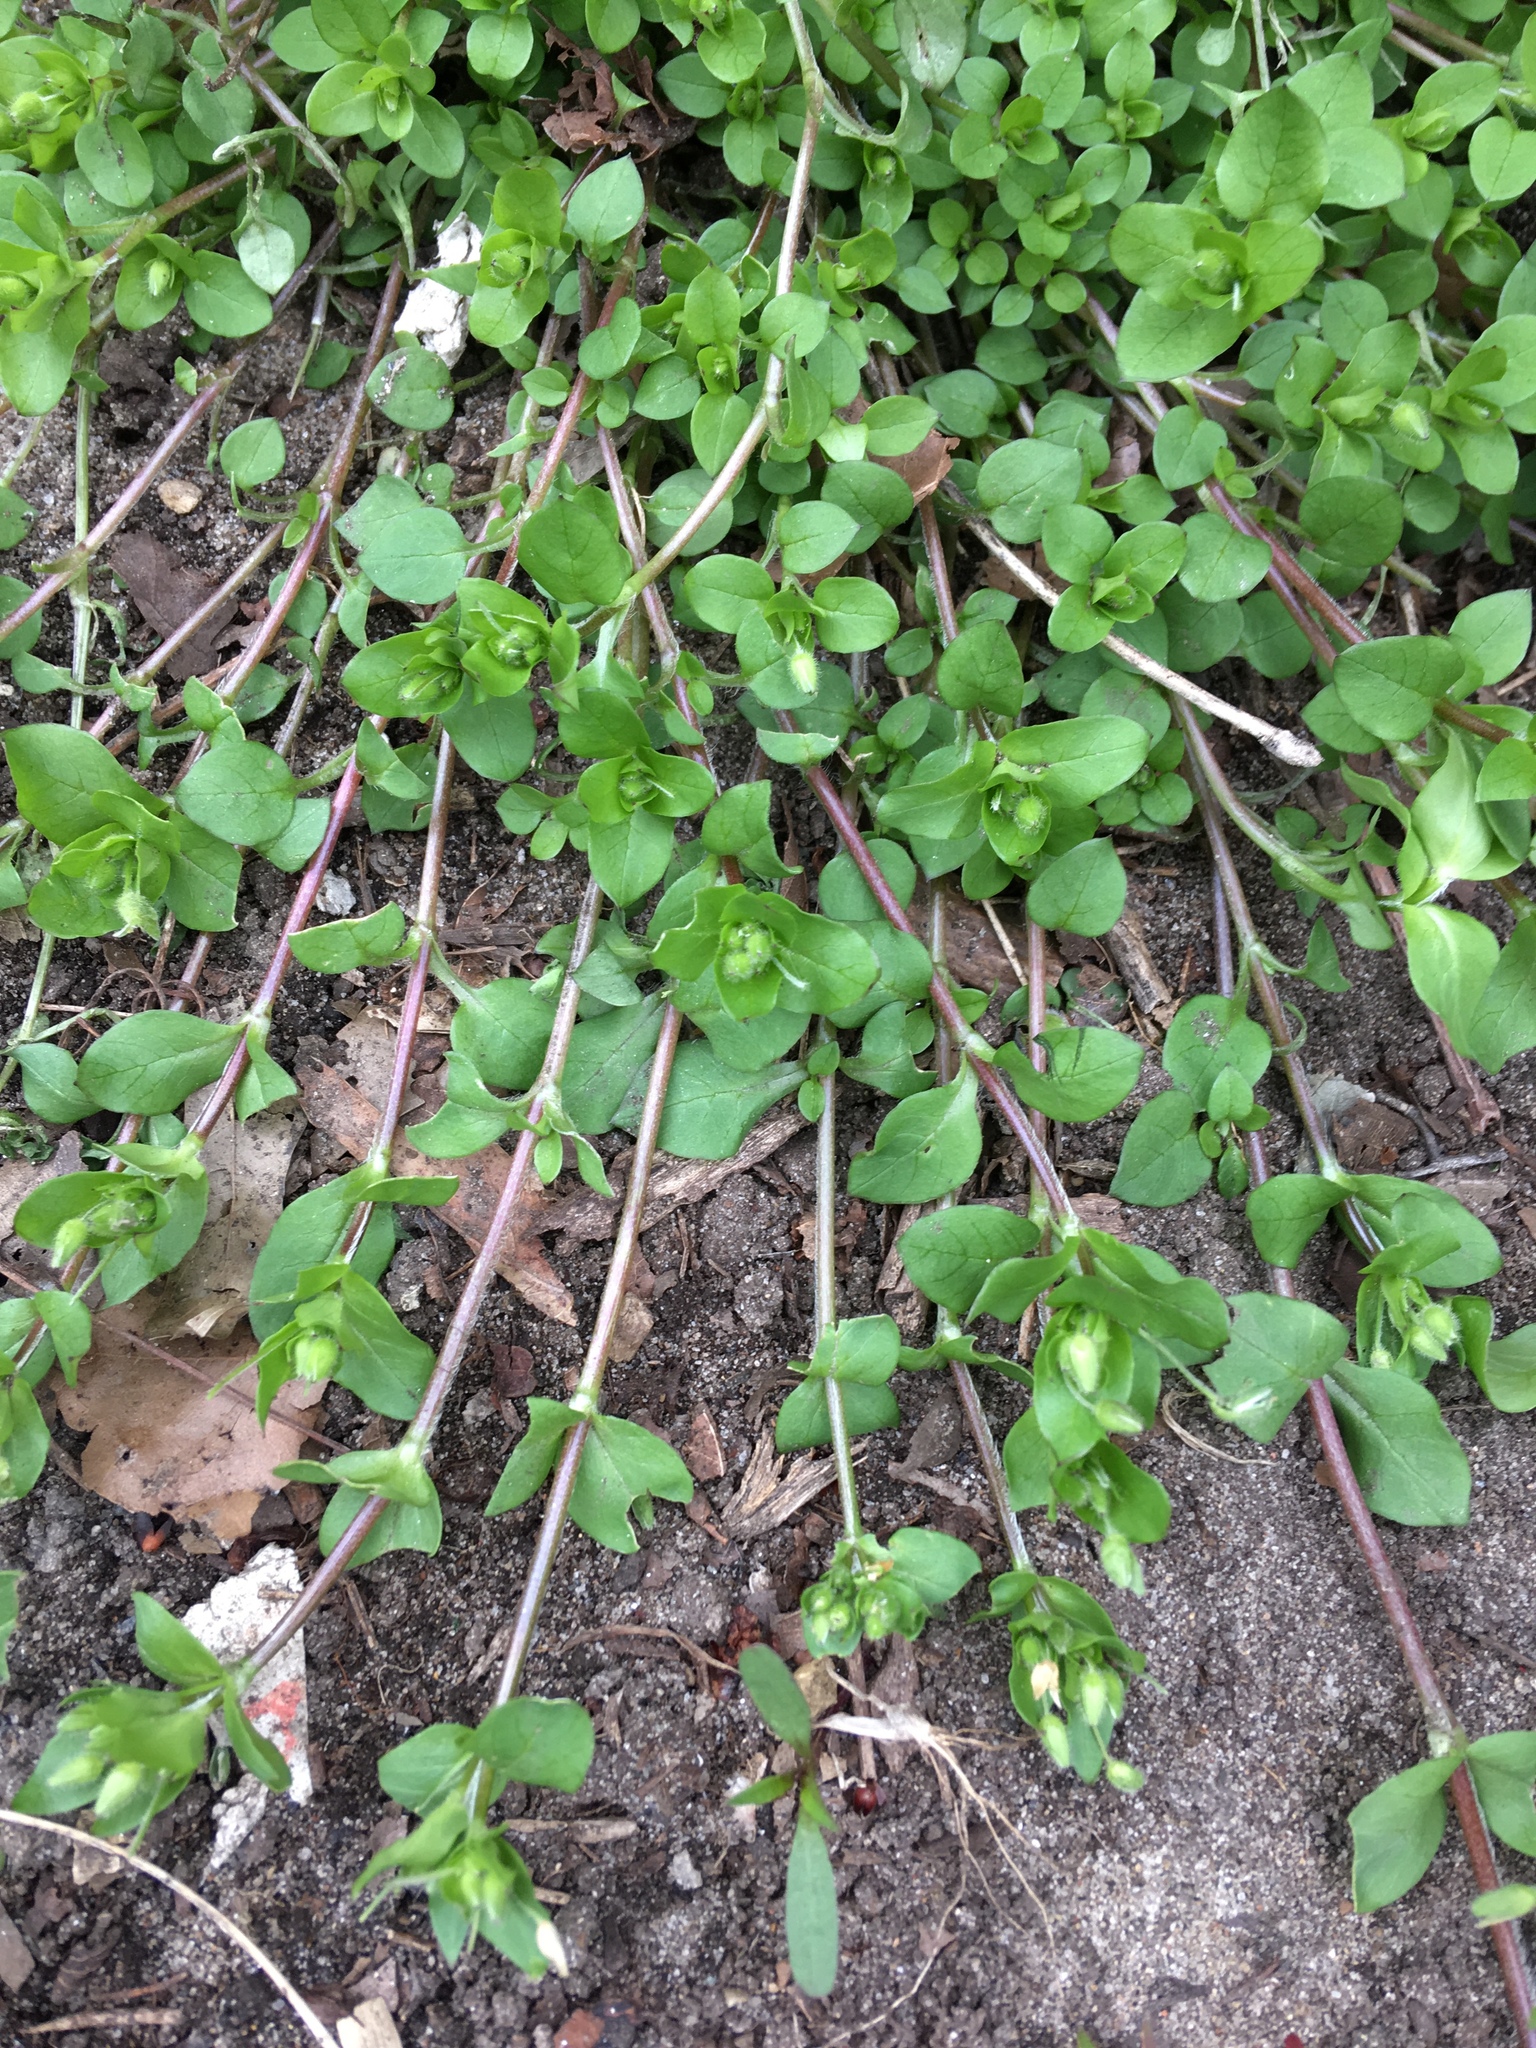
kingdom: Plantae
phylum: Tracheophyta
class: Magnoliopsida
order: Caryophyllales
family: Caryophyllaceae
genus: Stellaria
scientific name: Stellaria media
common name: Common chickweed
